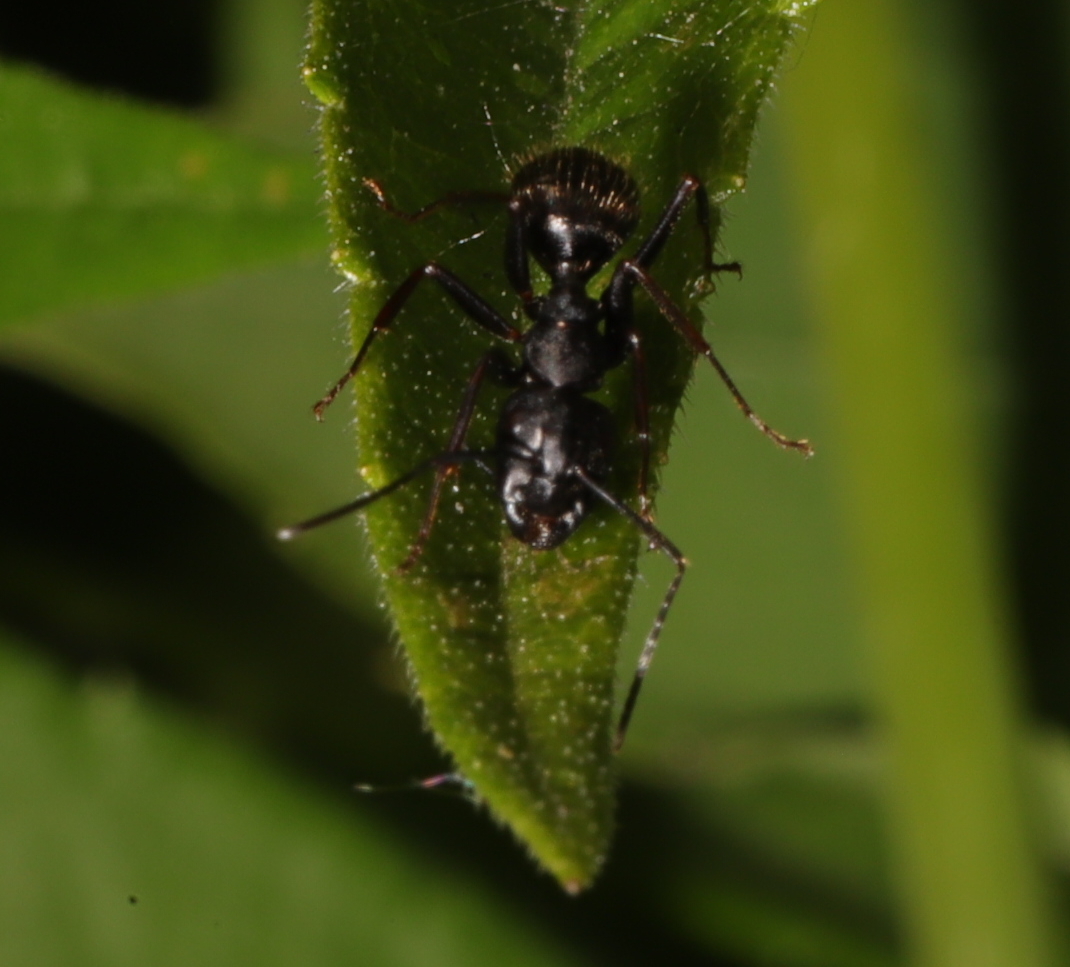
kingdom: Animalia
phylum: Arthropoda
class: Insecta
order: Hymenoptera
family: Formicidae
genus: Camponotus
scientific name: Camponotus pennsylvanicus
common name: Black carpenter ant
